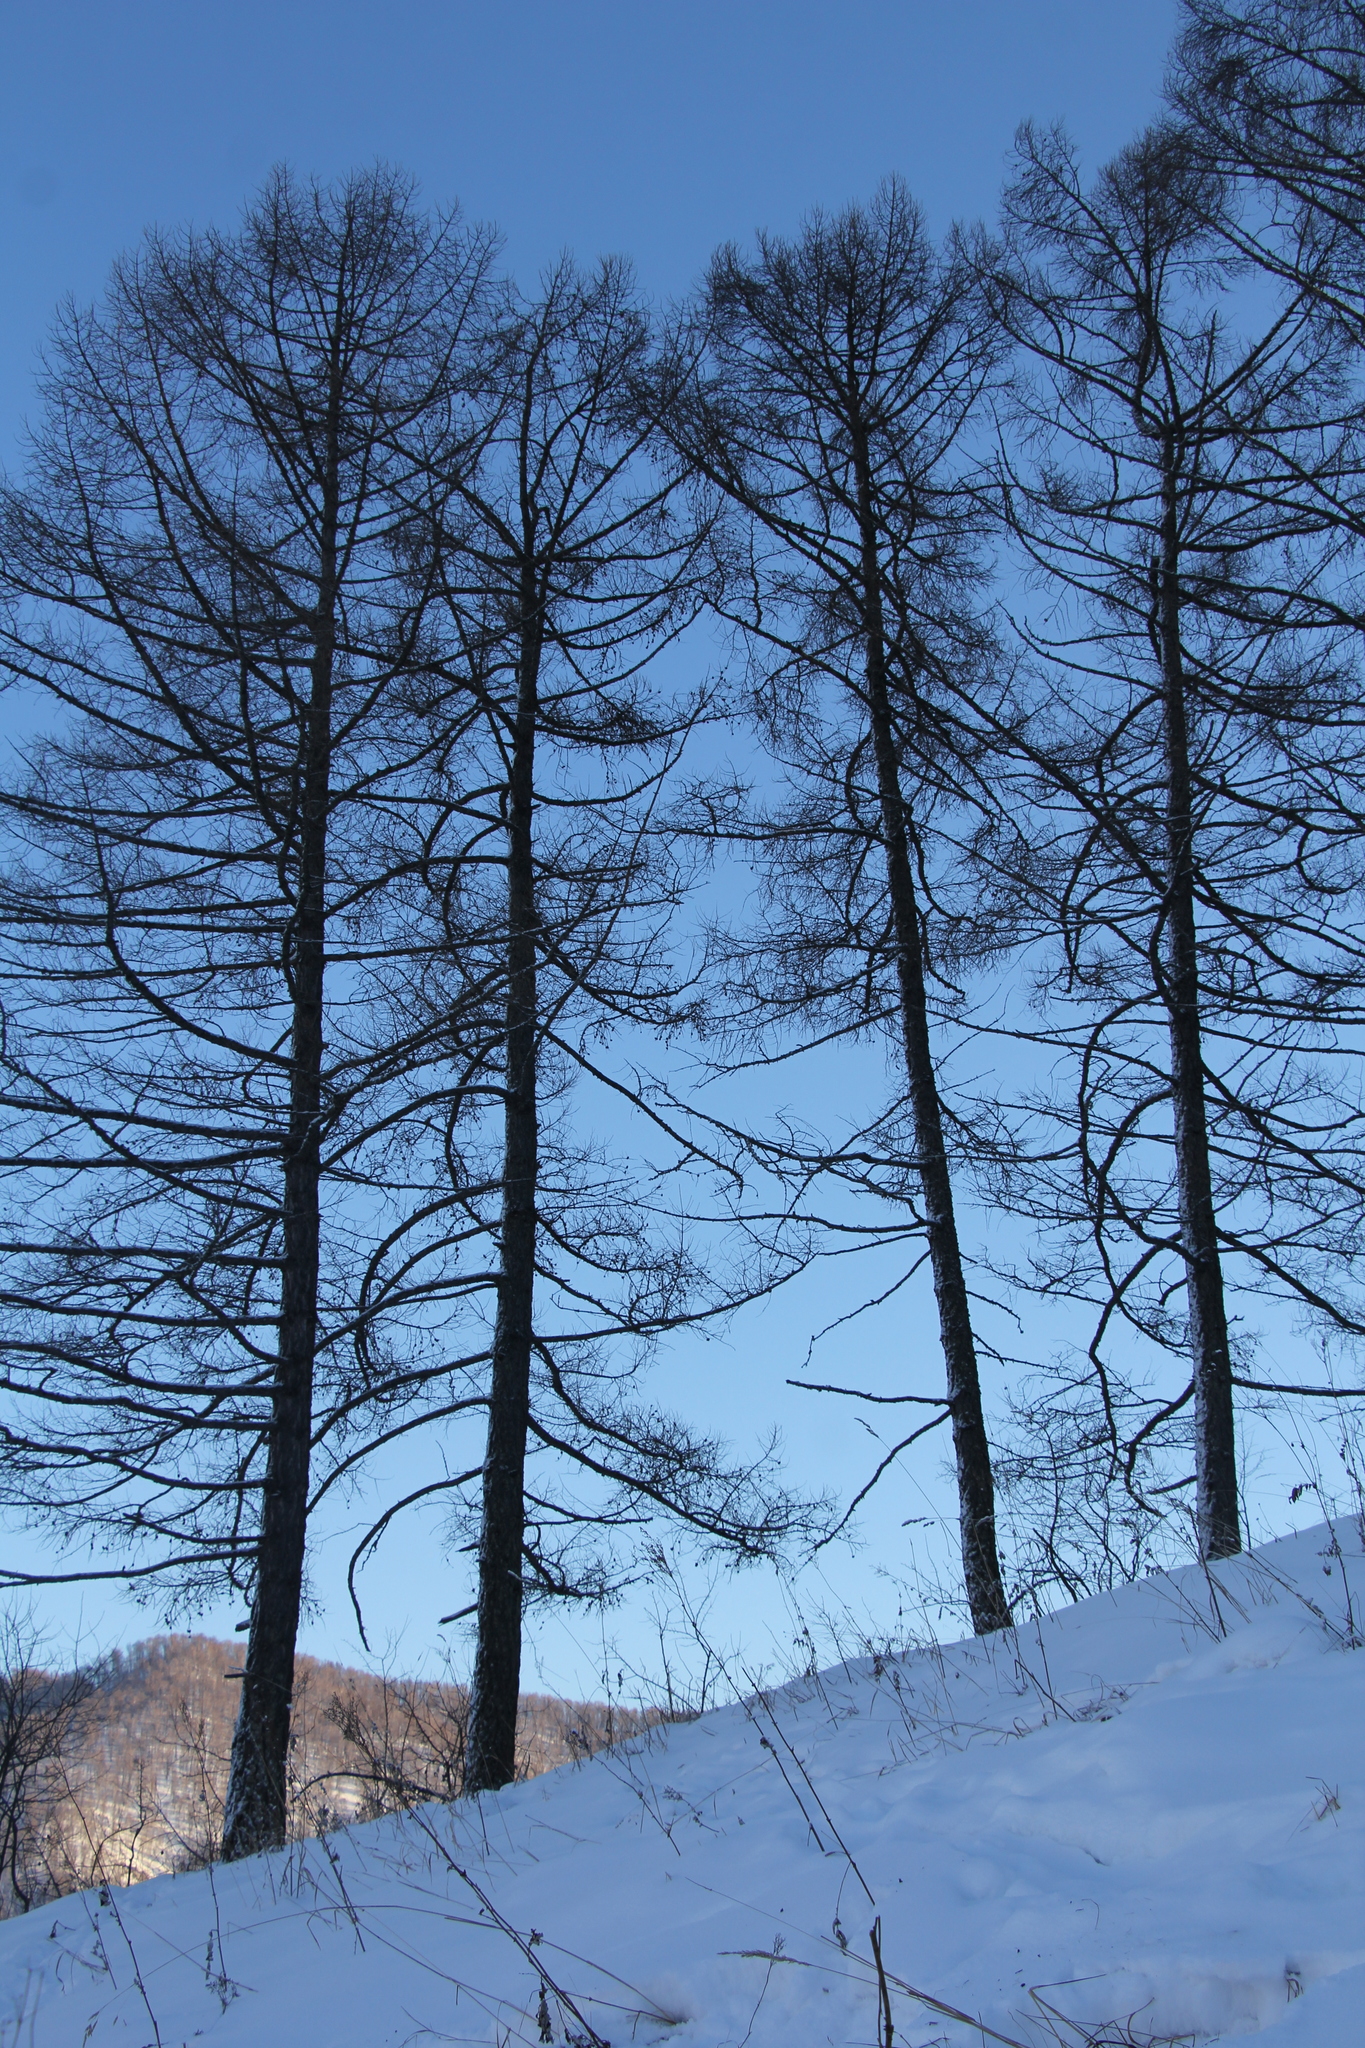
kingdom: Plantae
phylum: Tracheophyta
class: Pinopsida
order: Pinales
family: Pinaceae
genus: Larix
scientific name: Larix sibirica
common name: Siberian larch
